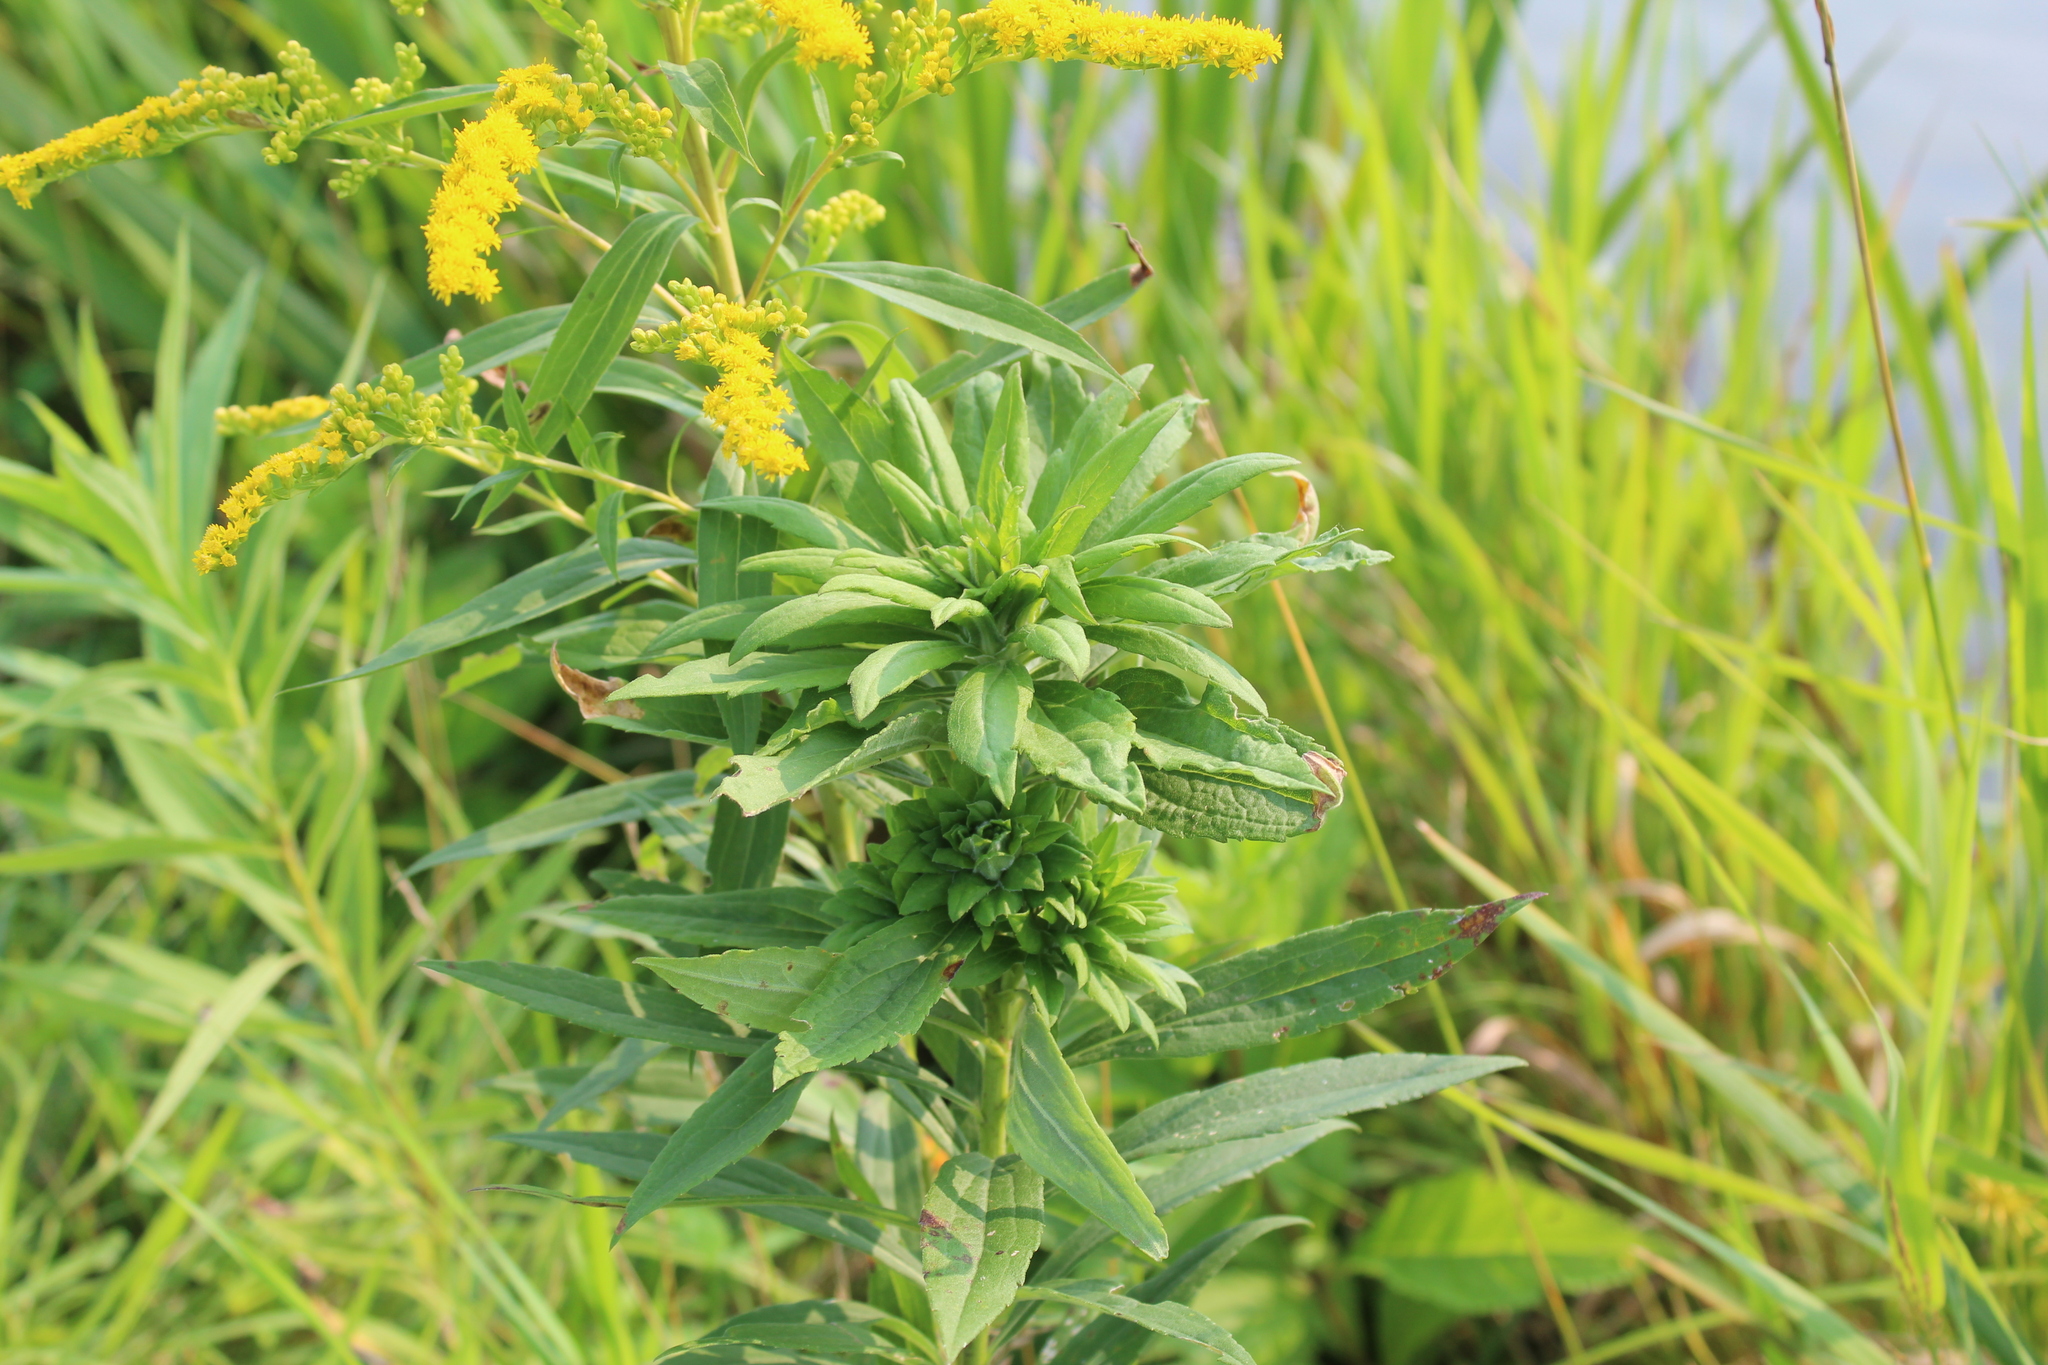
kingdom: Animalia
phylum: Arthropoda
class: Insecta
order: Diptera
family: Tephritidae
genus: Procecidochares
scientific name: Procecidochares atra
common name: Goldenrod brussels sprout gall fly
